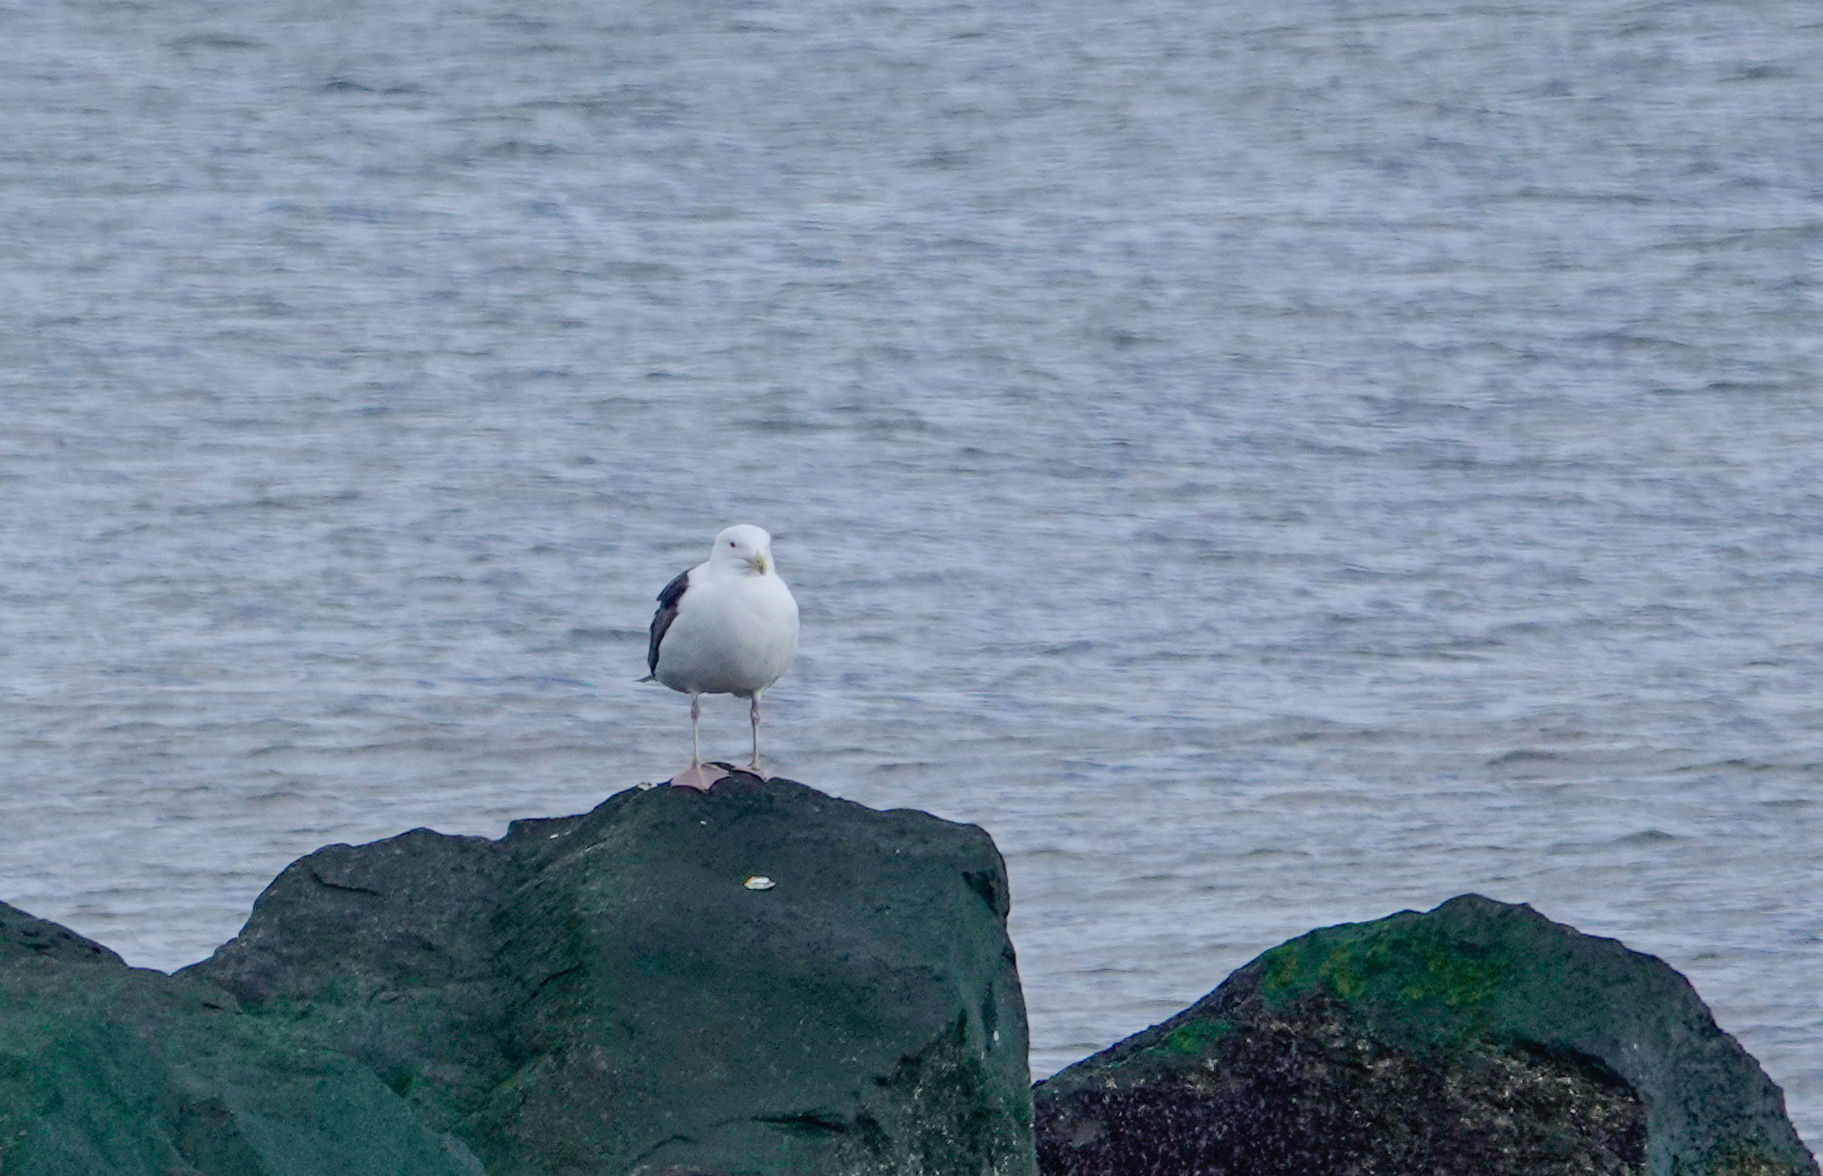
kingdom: Animalia
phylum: Chordata
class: Aves
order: Charadriiformes
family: Laridae
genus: Larus
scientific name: Larus marinus
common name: Great black-backed gull
